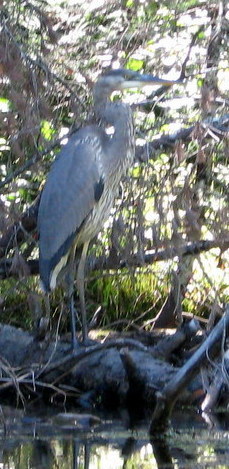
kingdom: Animalia
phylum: Chordata
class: Aves
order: Pelecaniformes
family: Ardeidae
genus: Ardea
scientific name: Ardea herodias
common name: Great blue heron
